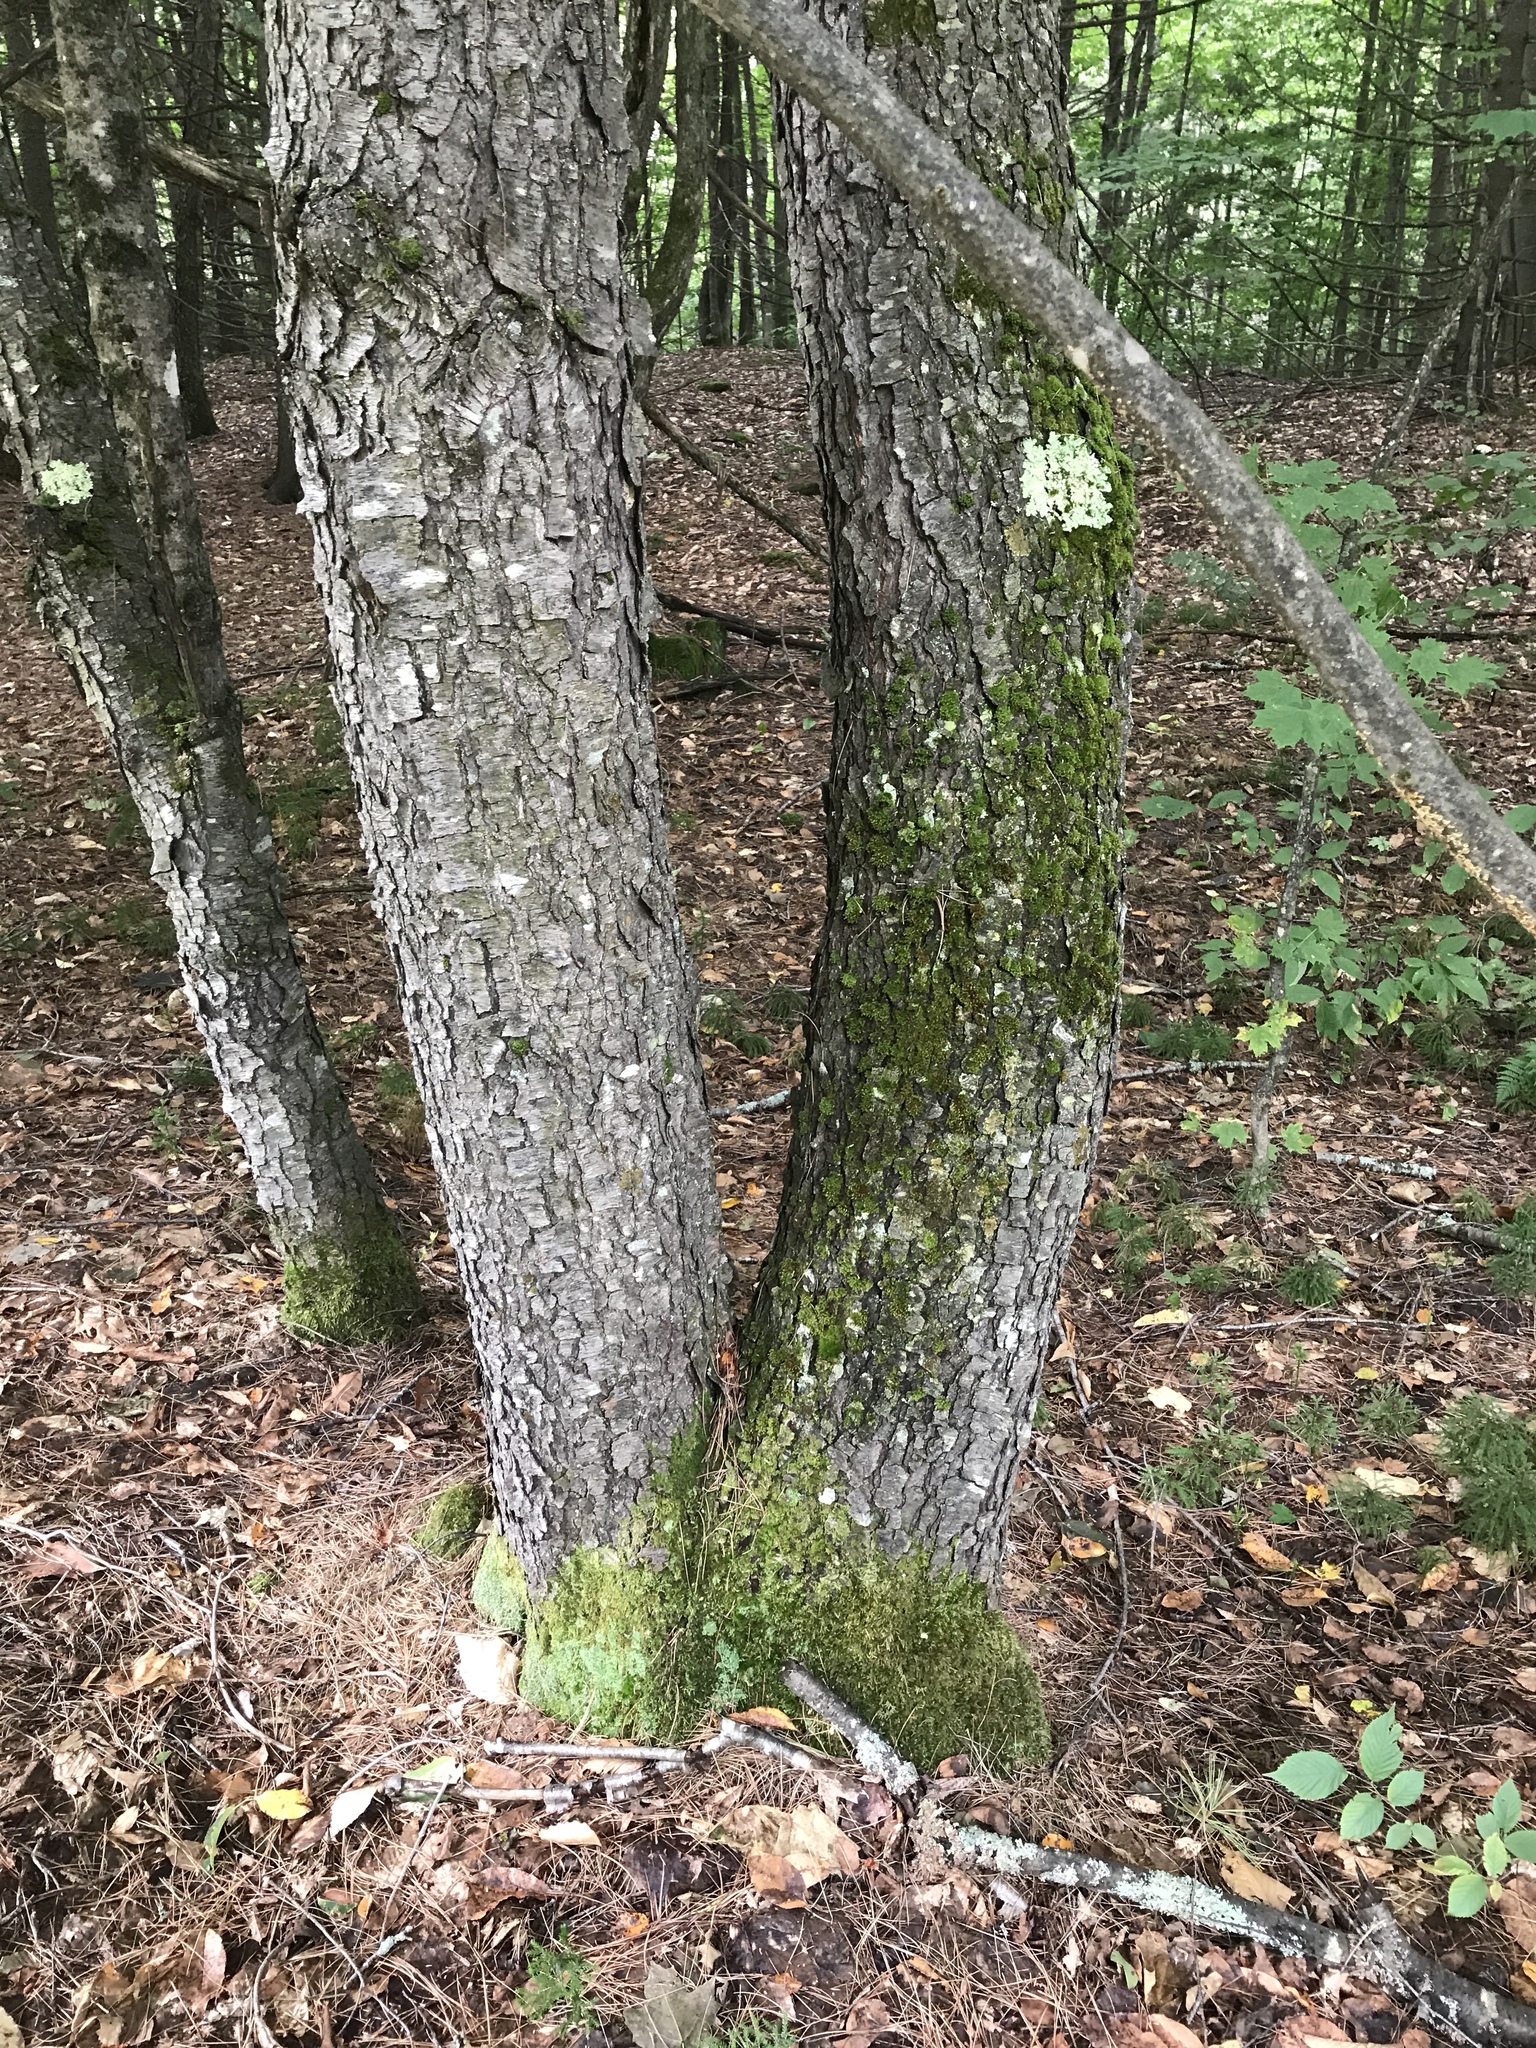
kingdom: Plantae
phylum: Tracheophyta
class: Magnoliopsida
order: Rosales
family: Rosaceae
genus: Prunus
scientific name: Prunus serotina
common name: Black cherry
